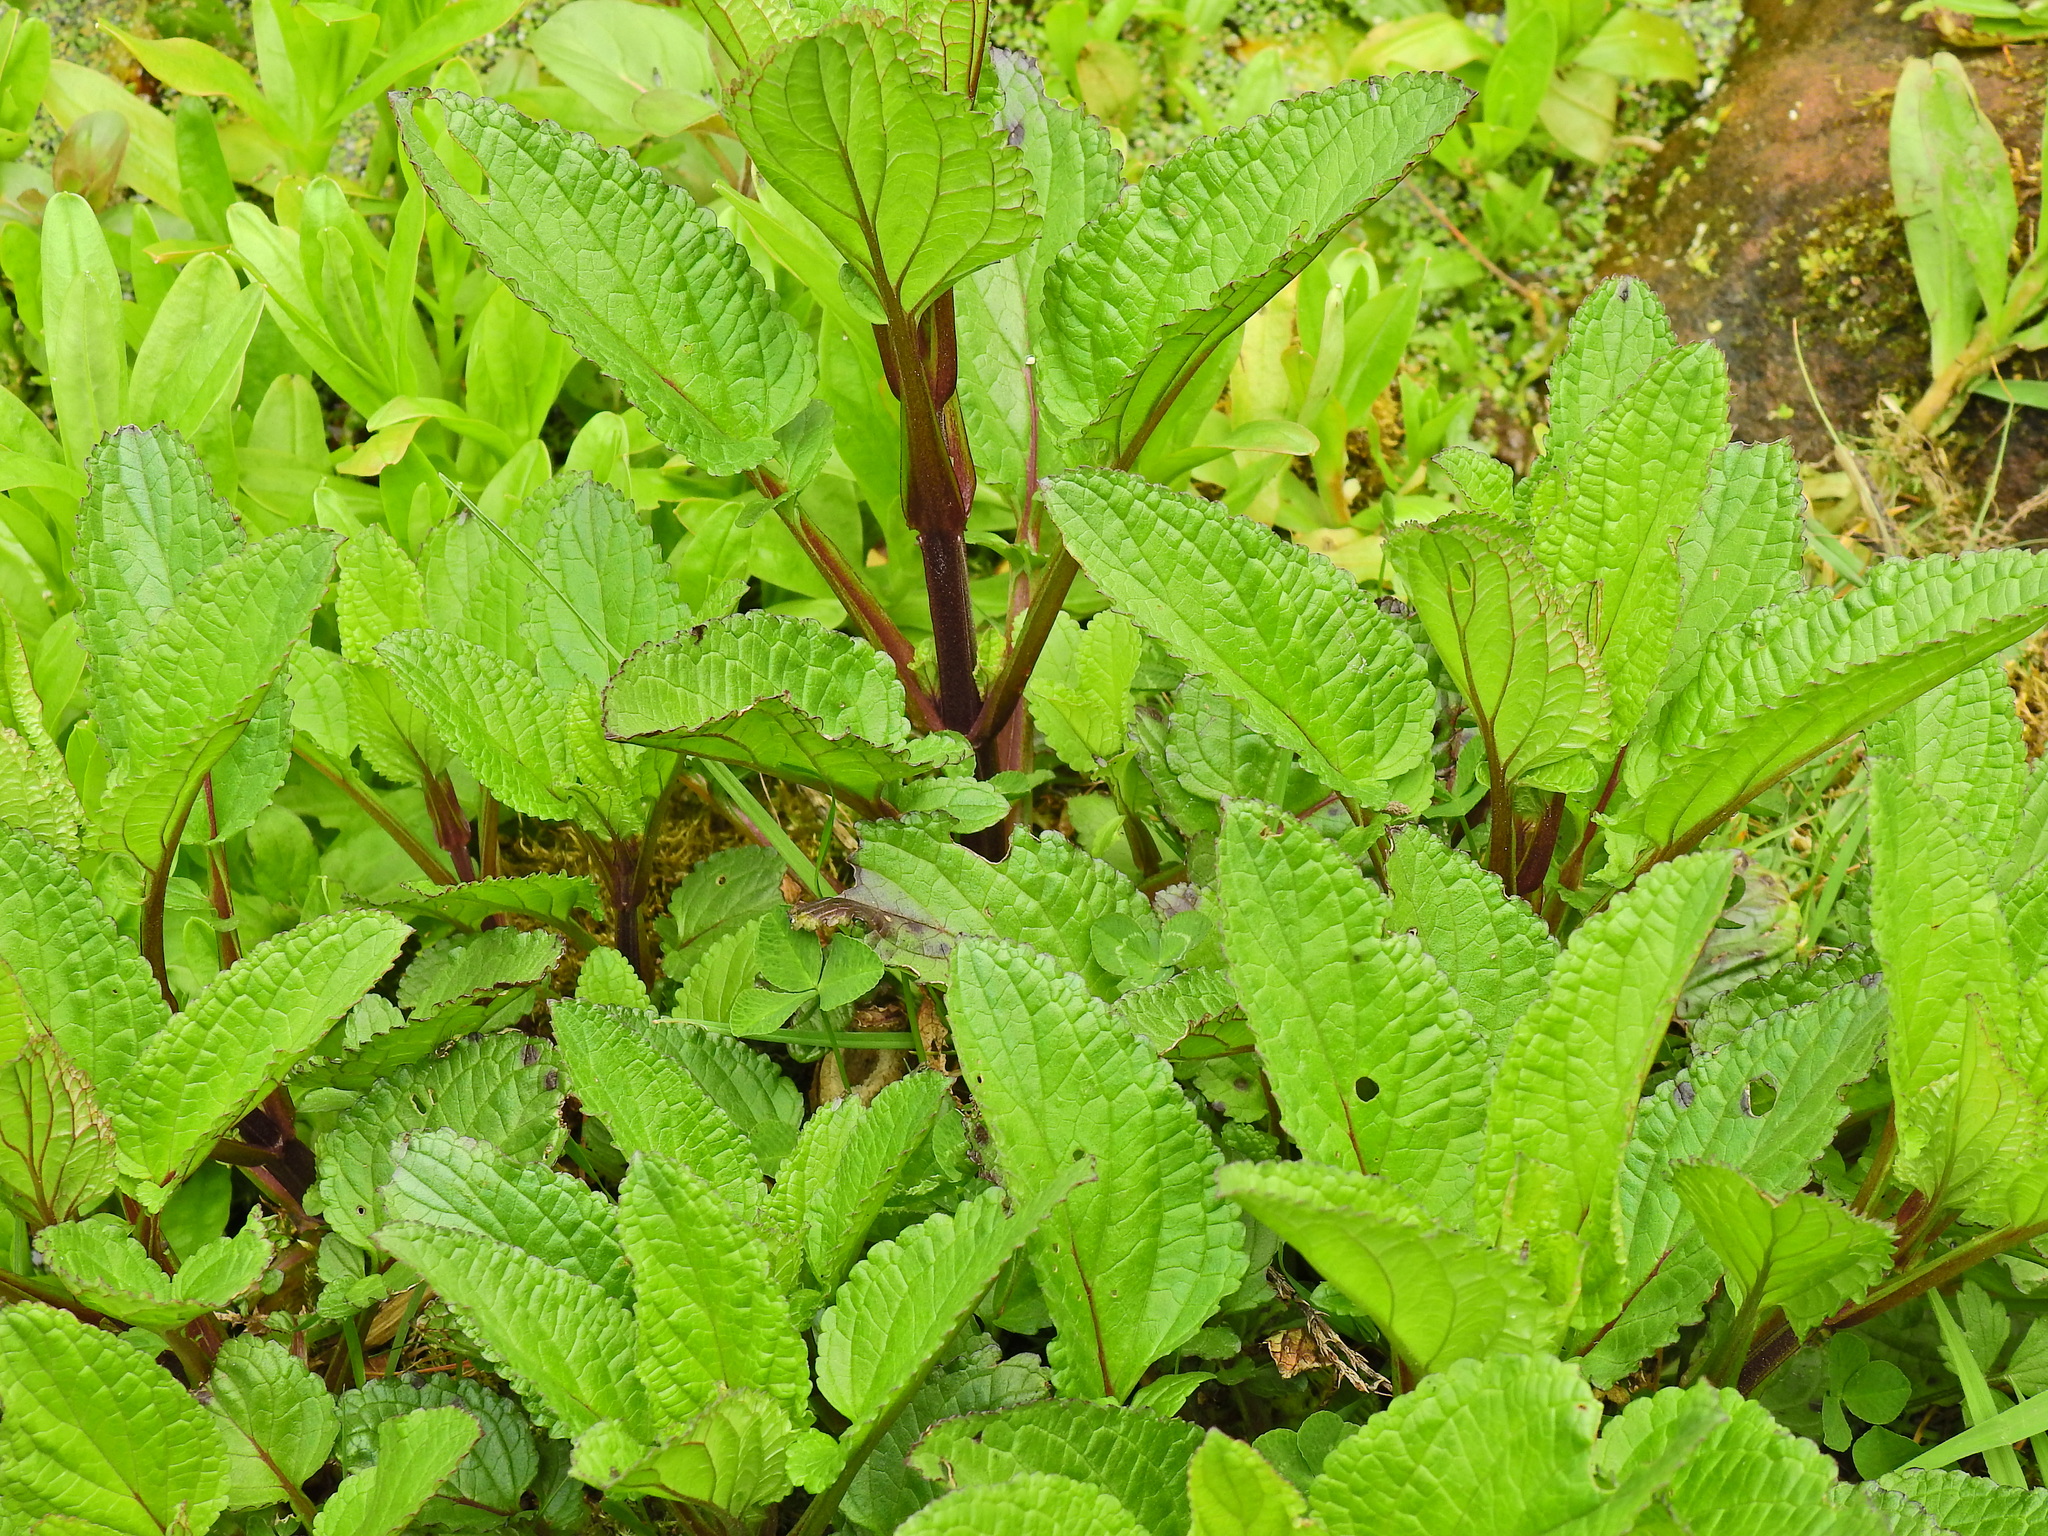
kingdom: Plantae
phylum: Tracheophyta
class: Magnoliopsida
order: Lamiales
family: Scrophulariaceae
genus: Scrophularia
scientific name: Scrophularia auriculata
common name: Water betony
